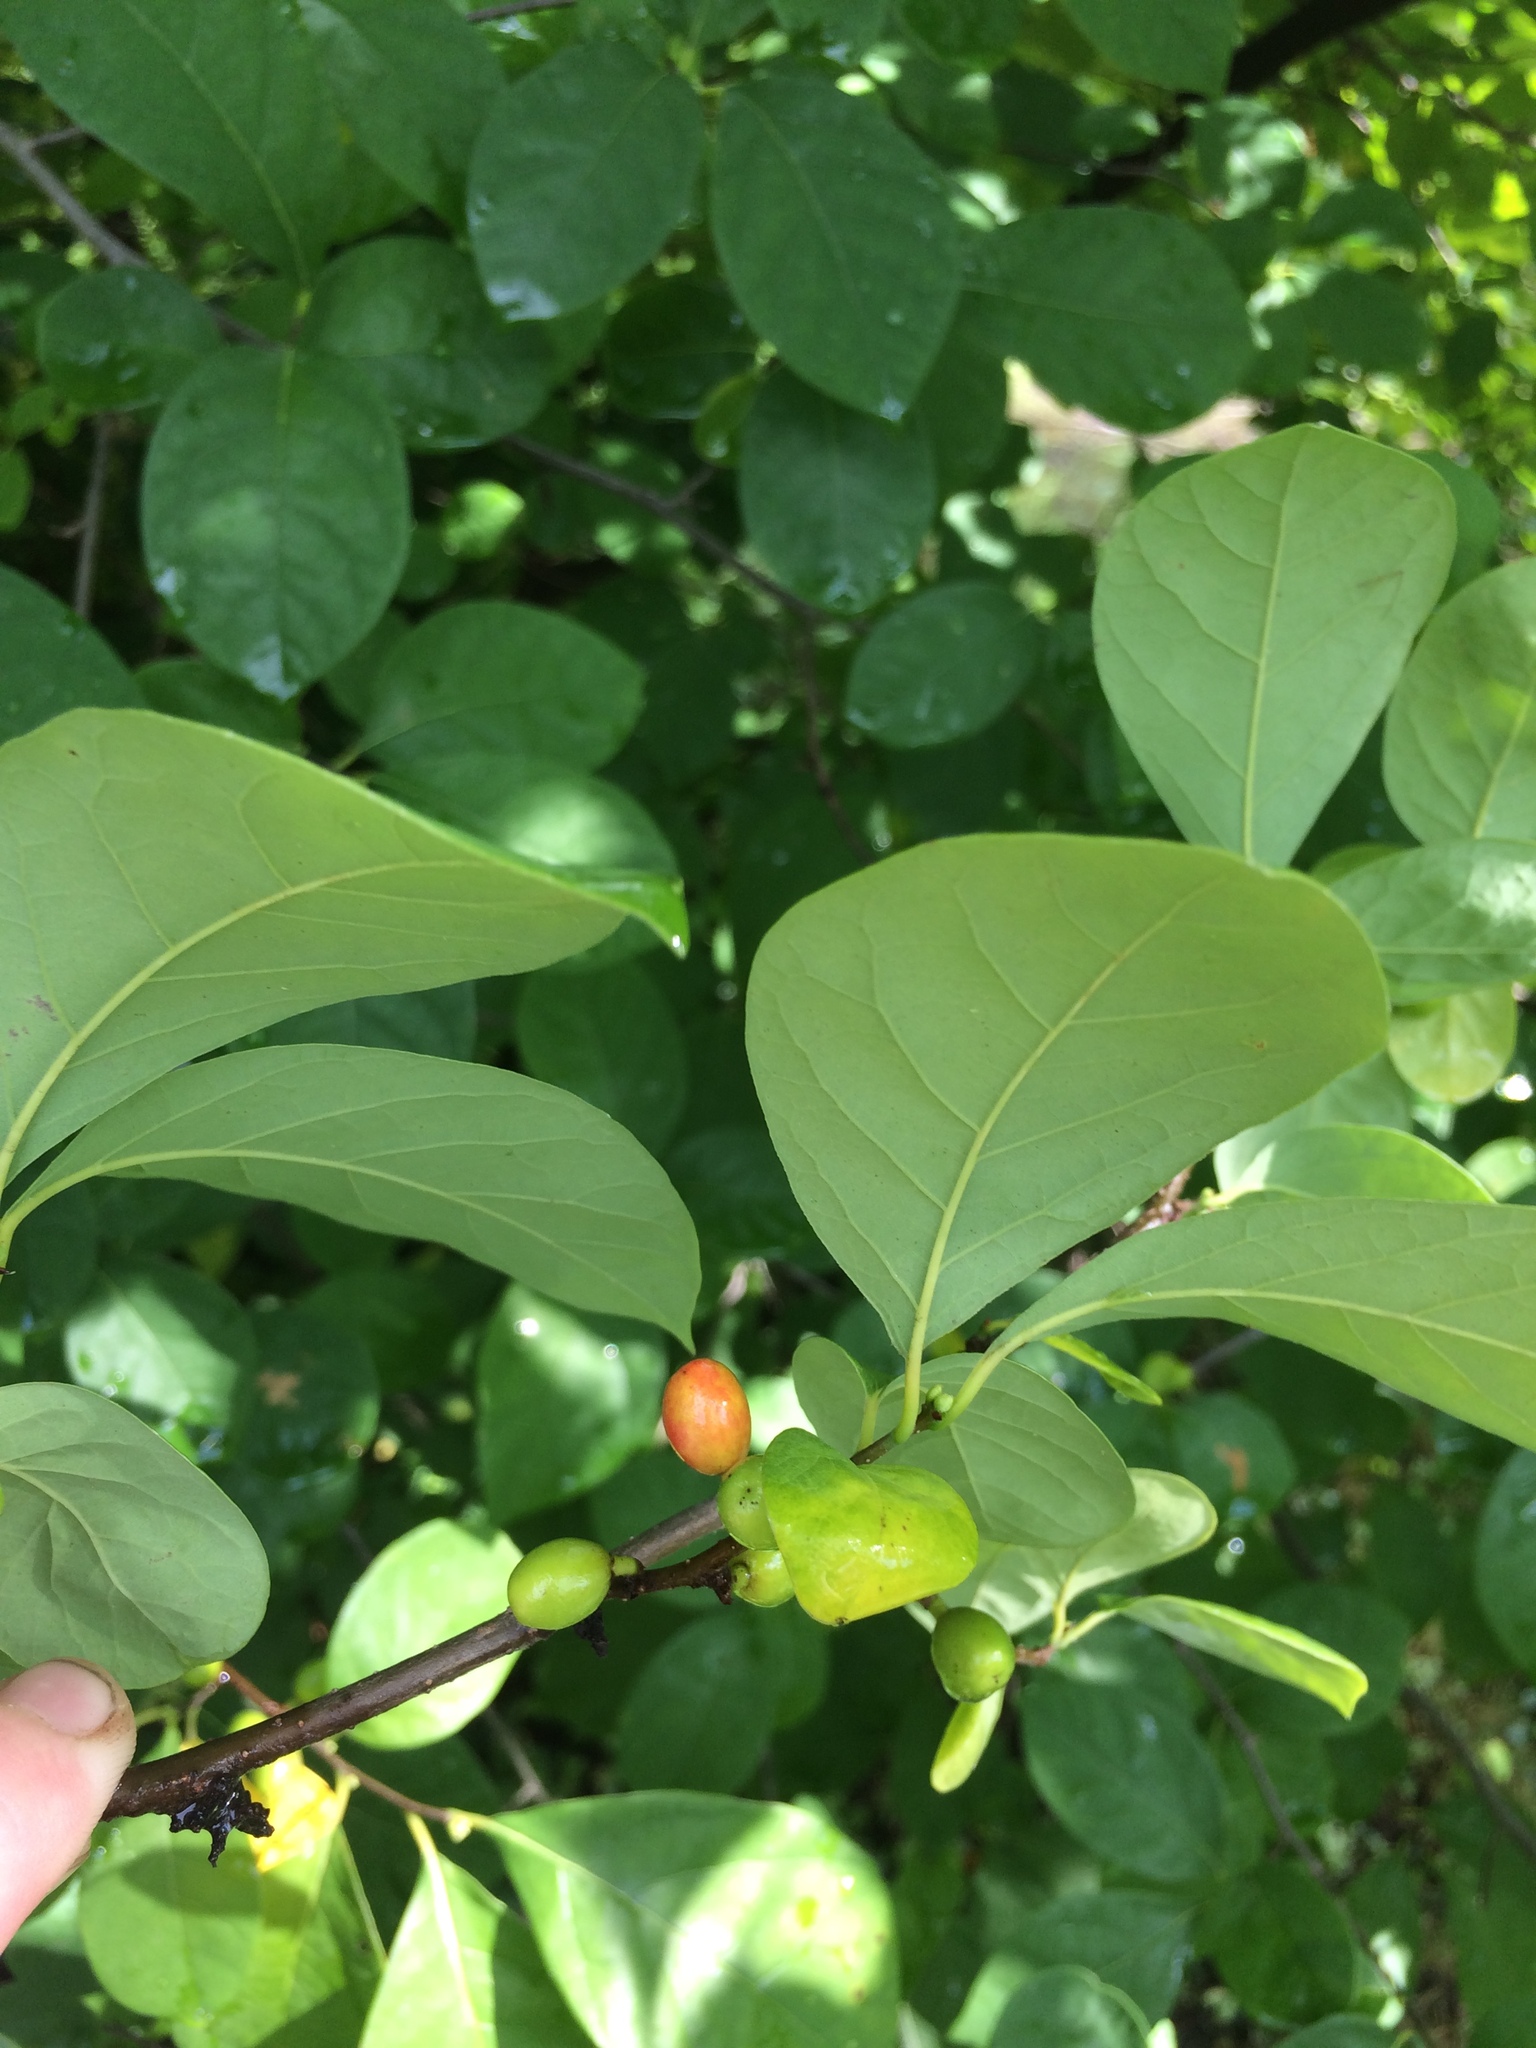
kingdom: Plantae
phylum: Tracheophyta
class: Magnoliopsida
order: Laurales
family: Lauraceae
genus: Lindera
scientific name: Lindera benzoin
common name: Spicebush
